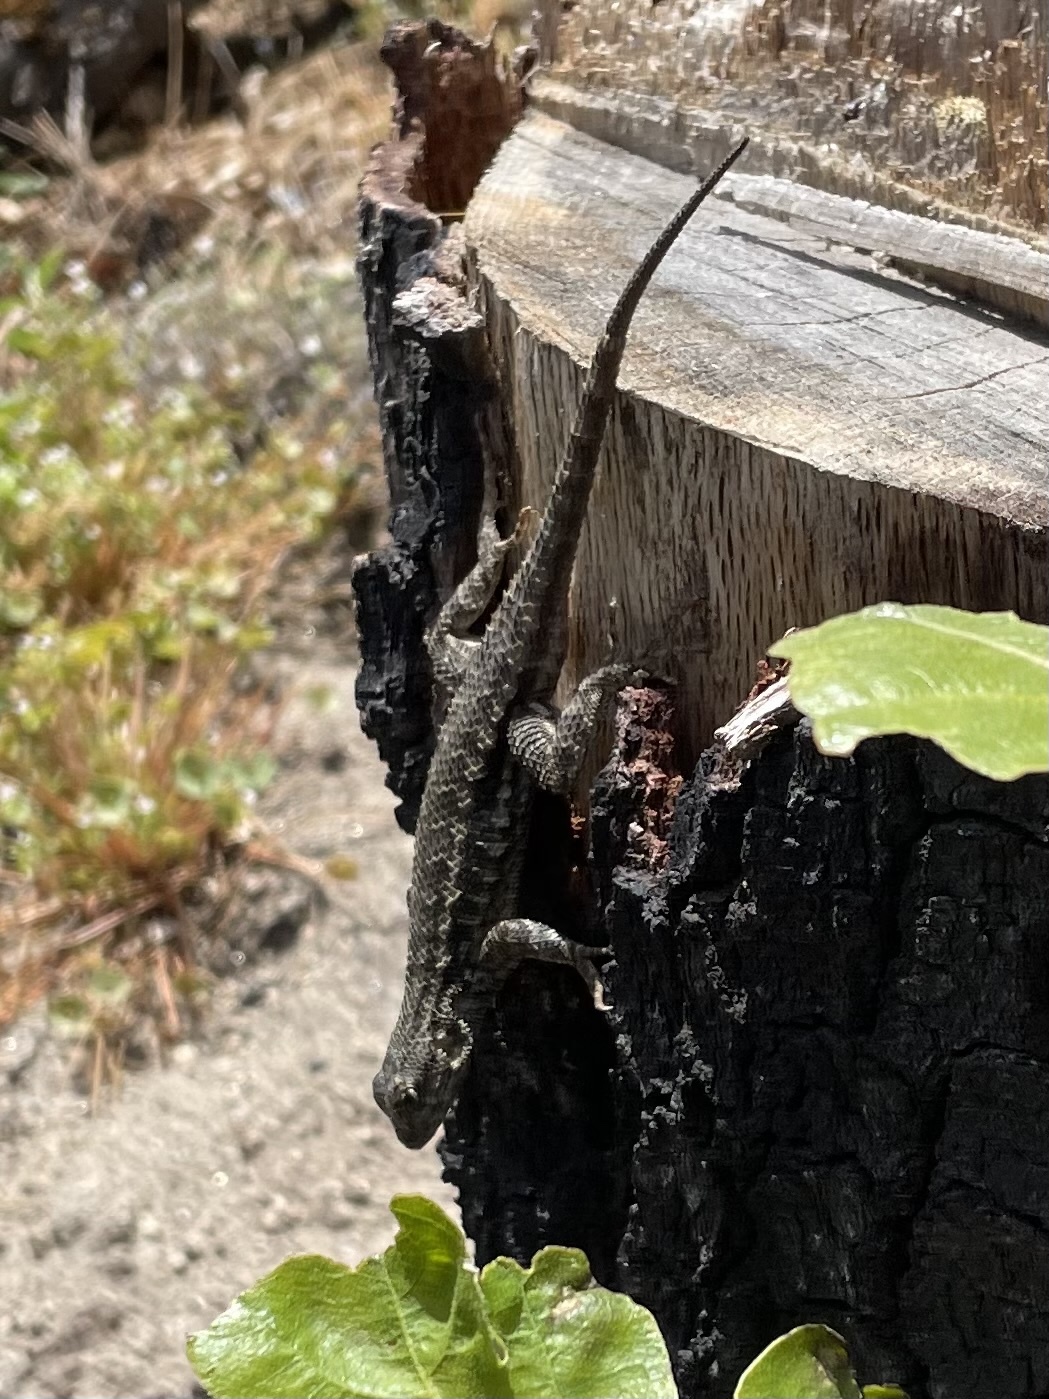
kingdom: Animalia
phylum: Chordata
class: Squamata
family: Phrynosomatidae
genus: Sceloporus
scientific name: Sceloporus occidentalis
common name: Western fence lizard
